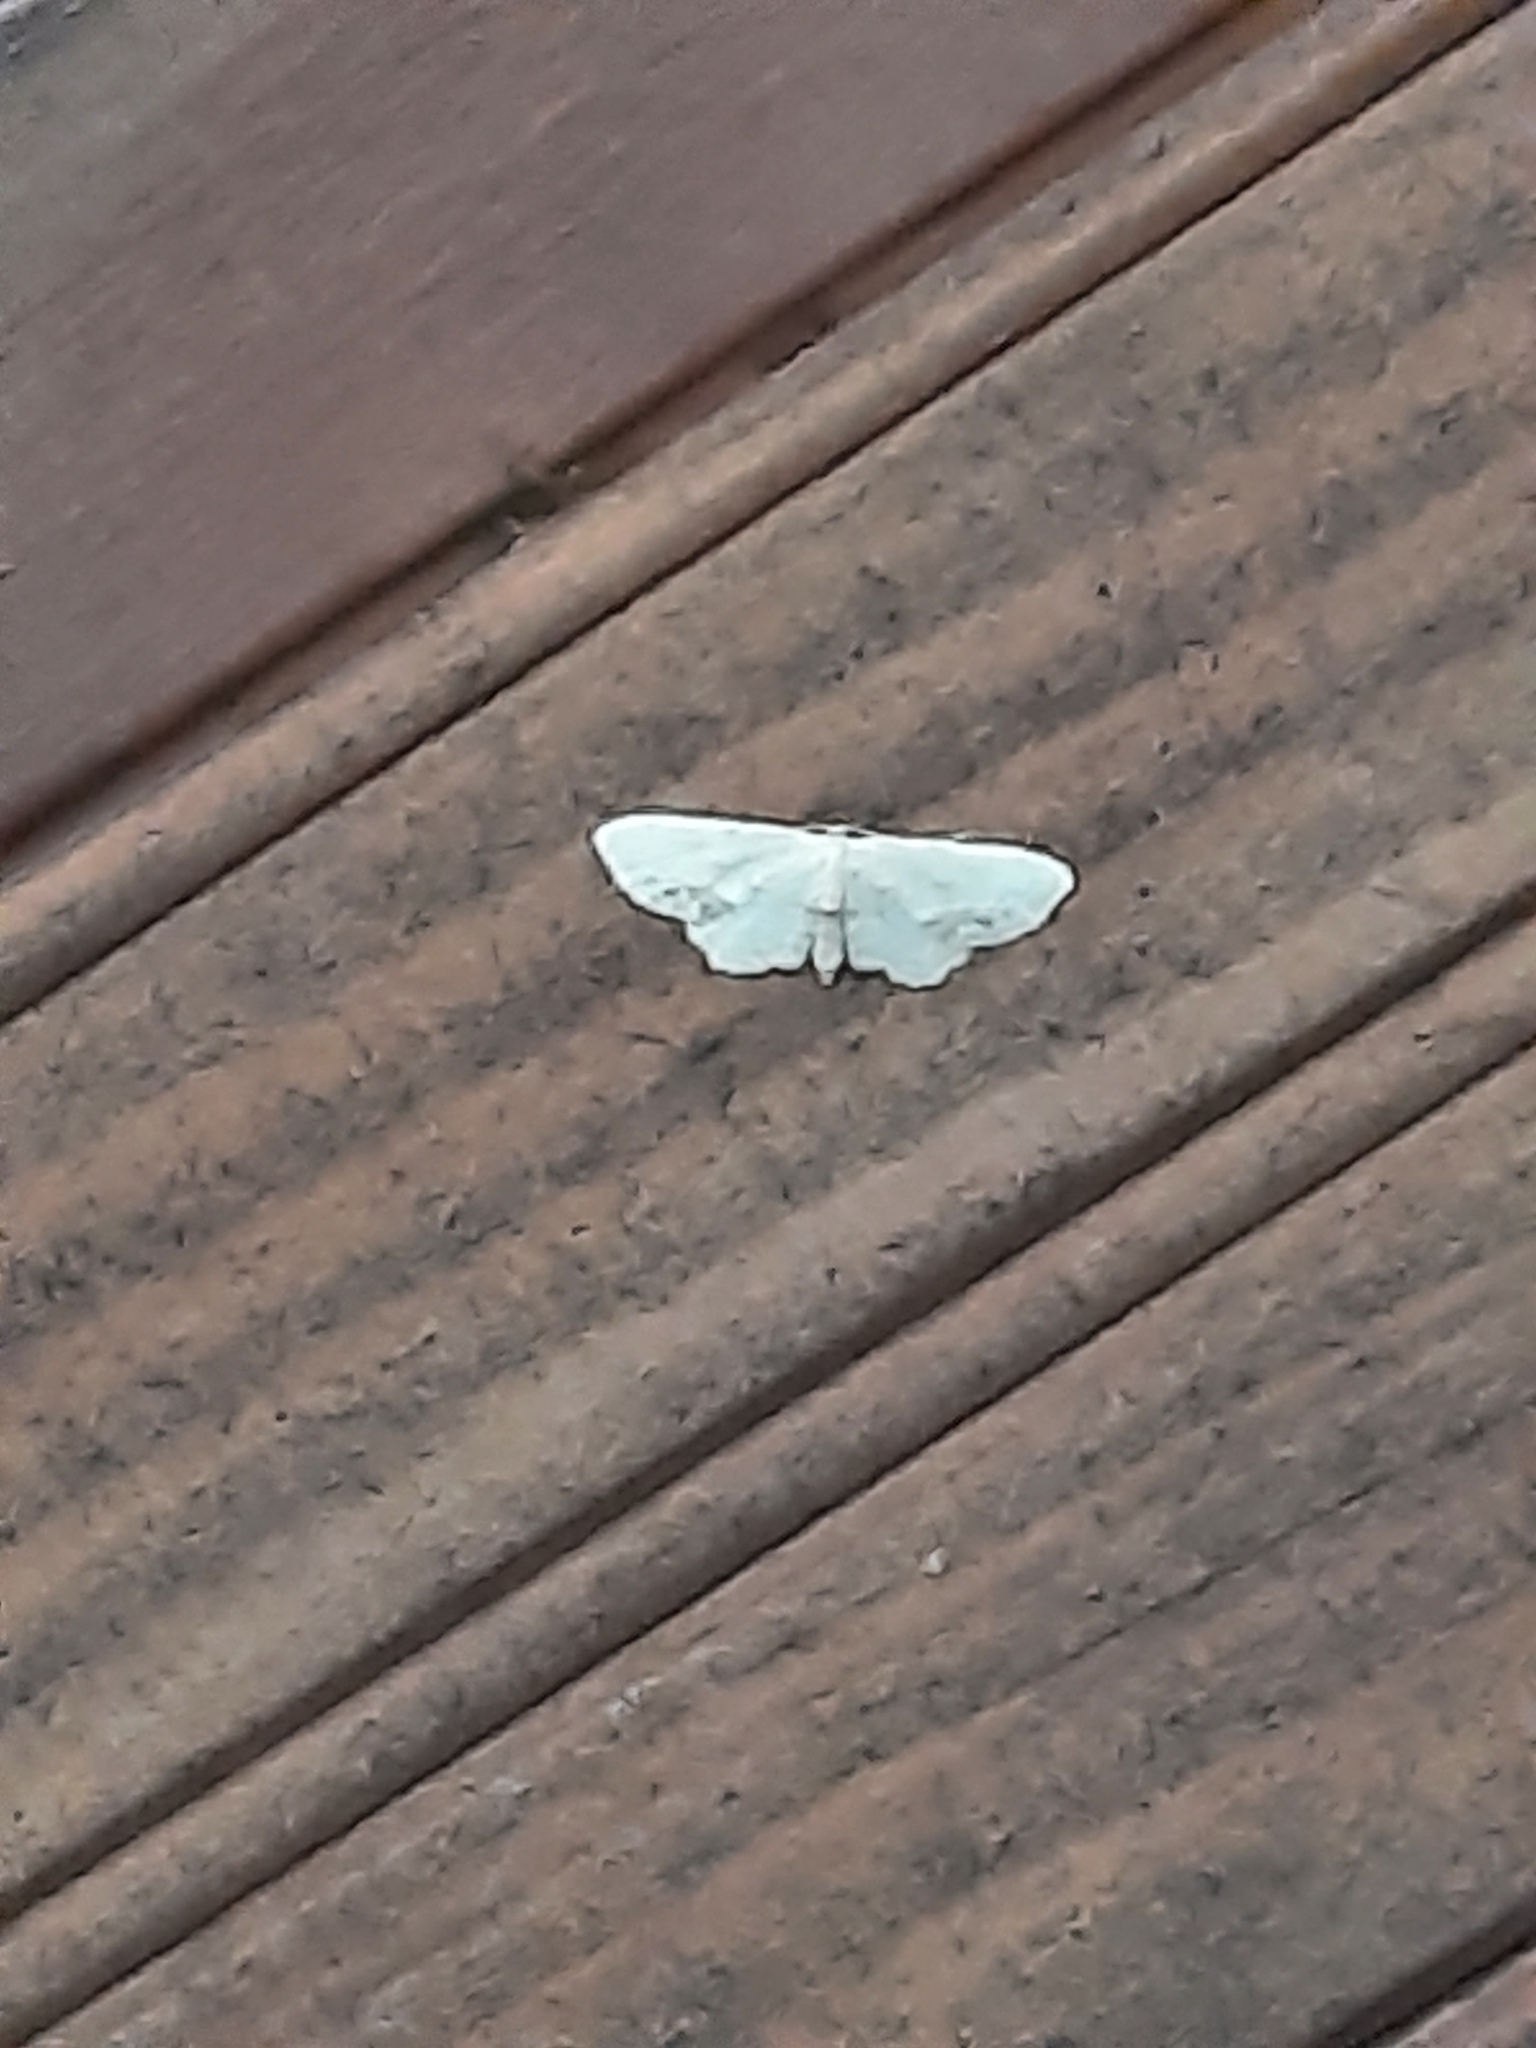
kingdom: Animalia
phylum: Arthropoda
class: Insecta
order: Lepidoptera
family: Geometridae
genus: Idaea
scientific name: Idaea dimidiata
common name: Single-dotted wave
